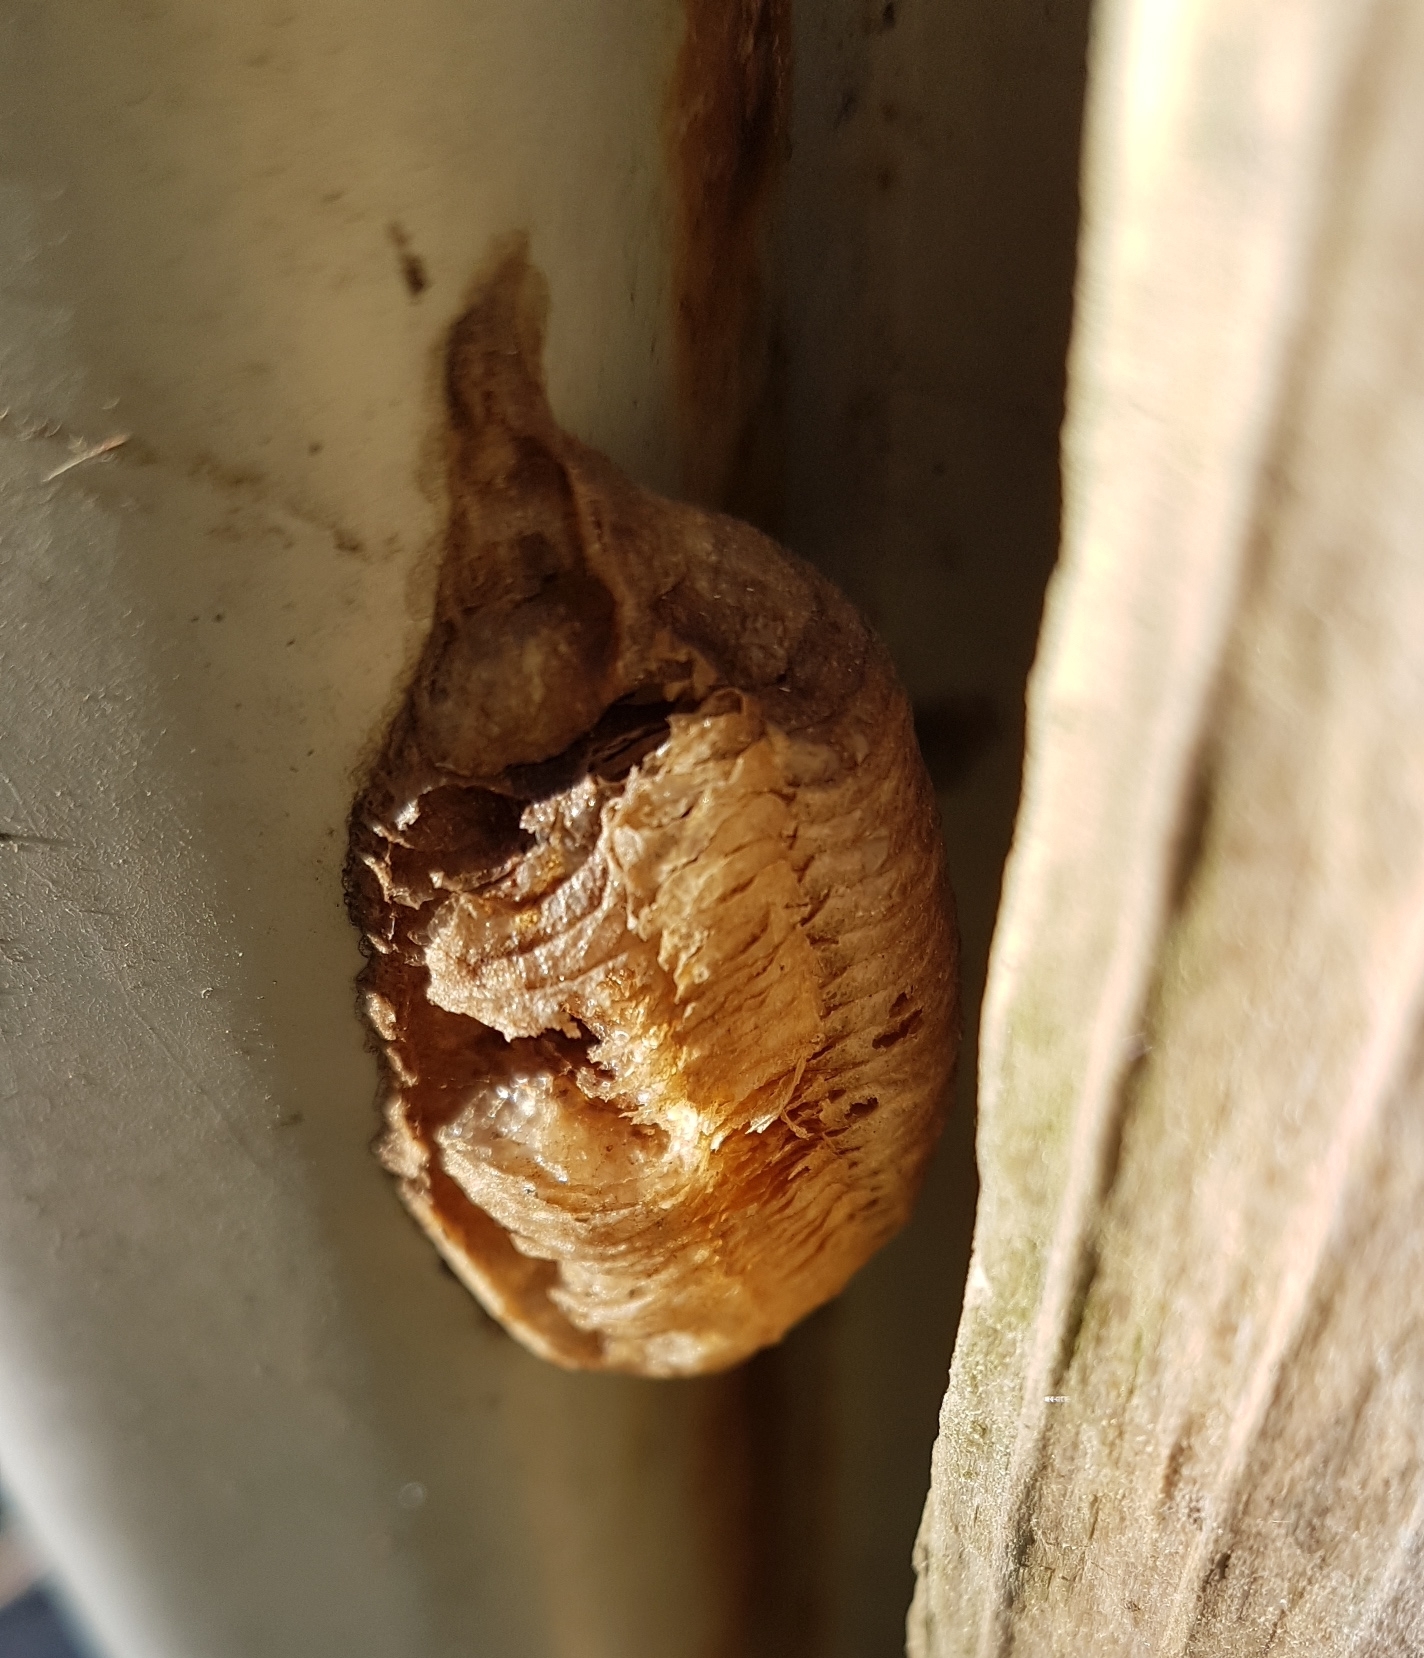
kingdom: Animalia
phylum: Arthropoda
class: Insecta
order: Mantodea
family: Mantidae
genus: Mantis
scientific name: Mantis religiosa
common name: Praying mantis
